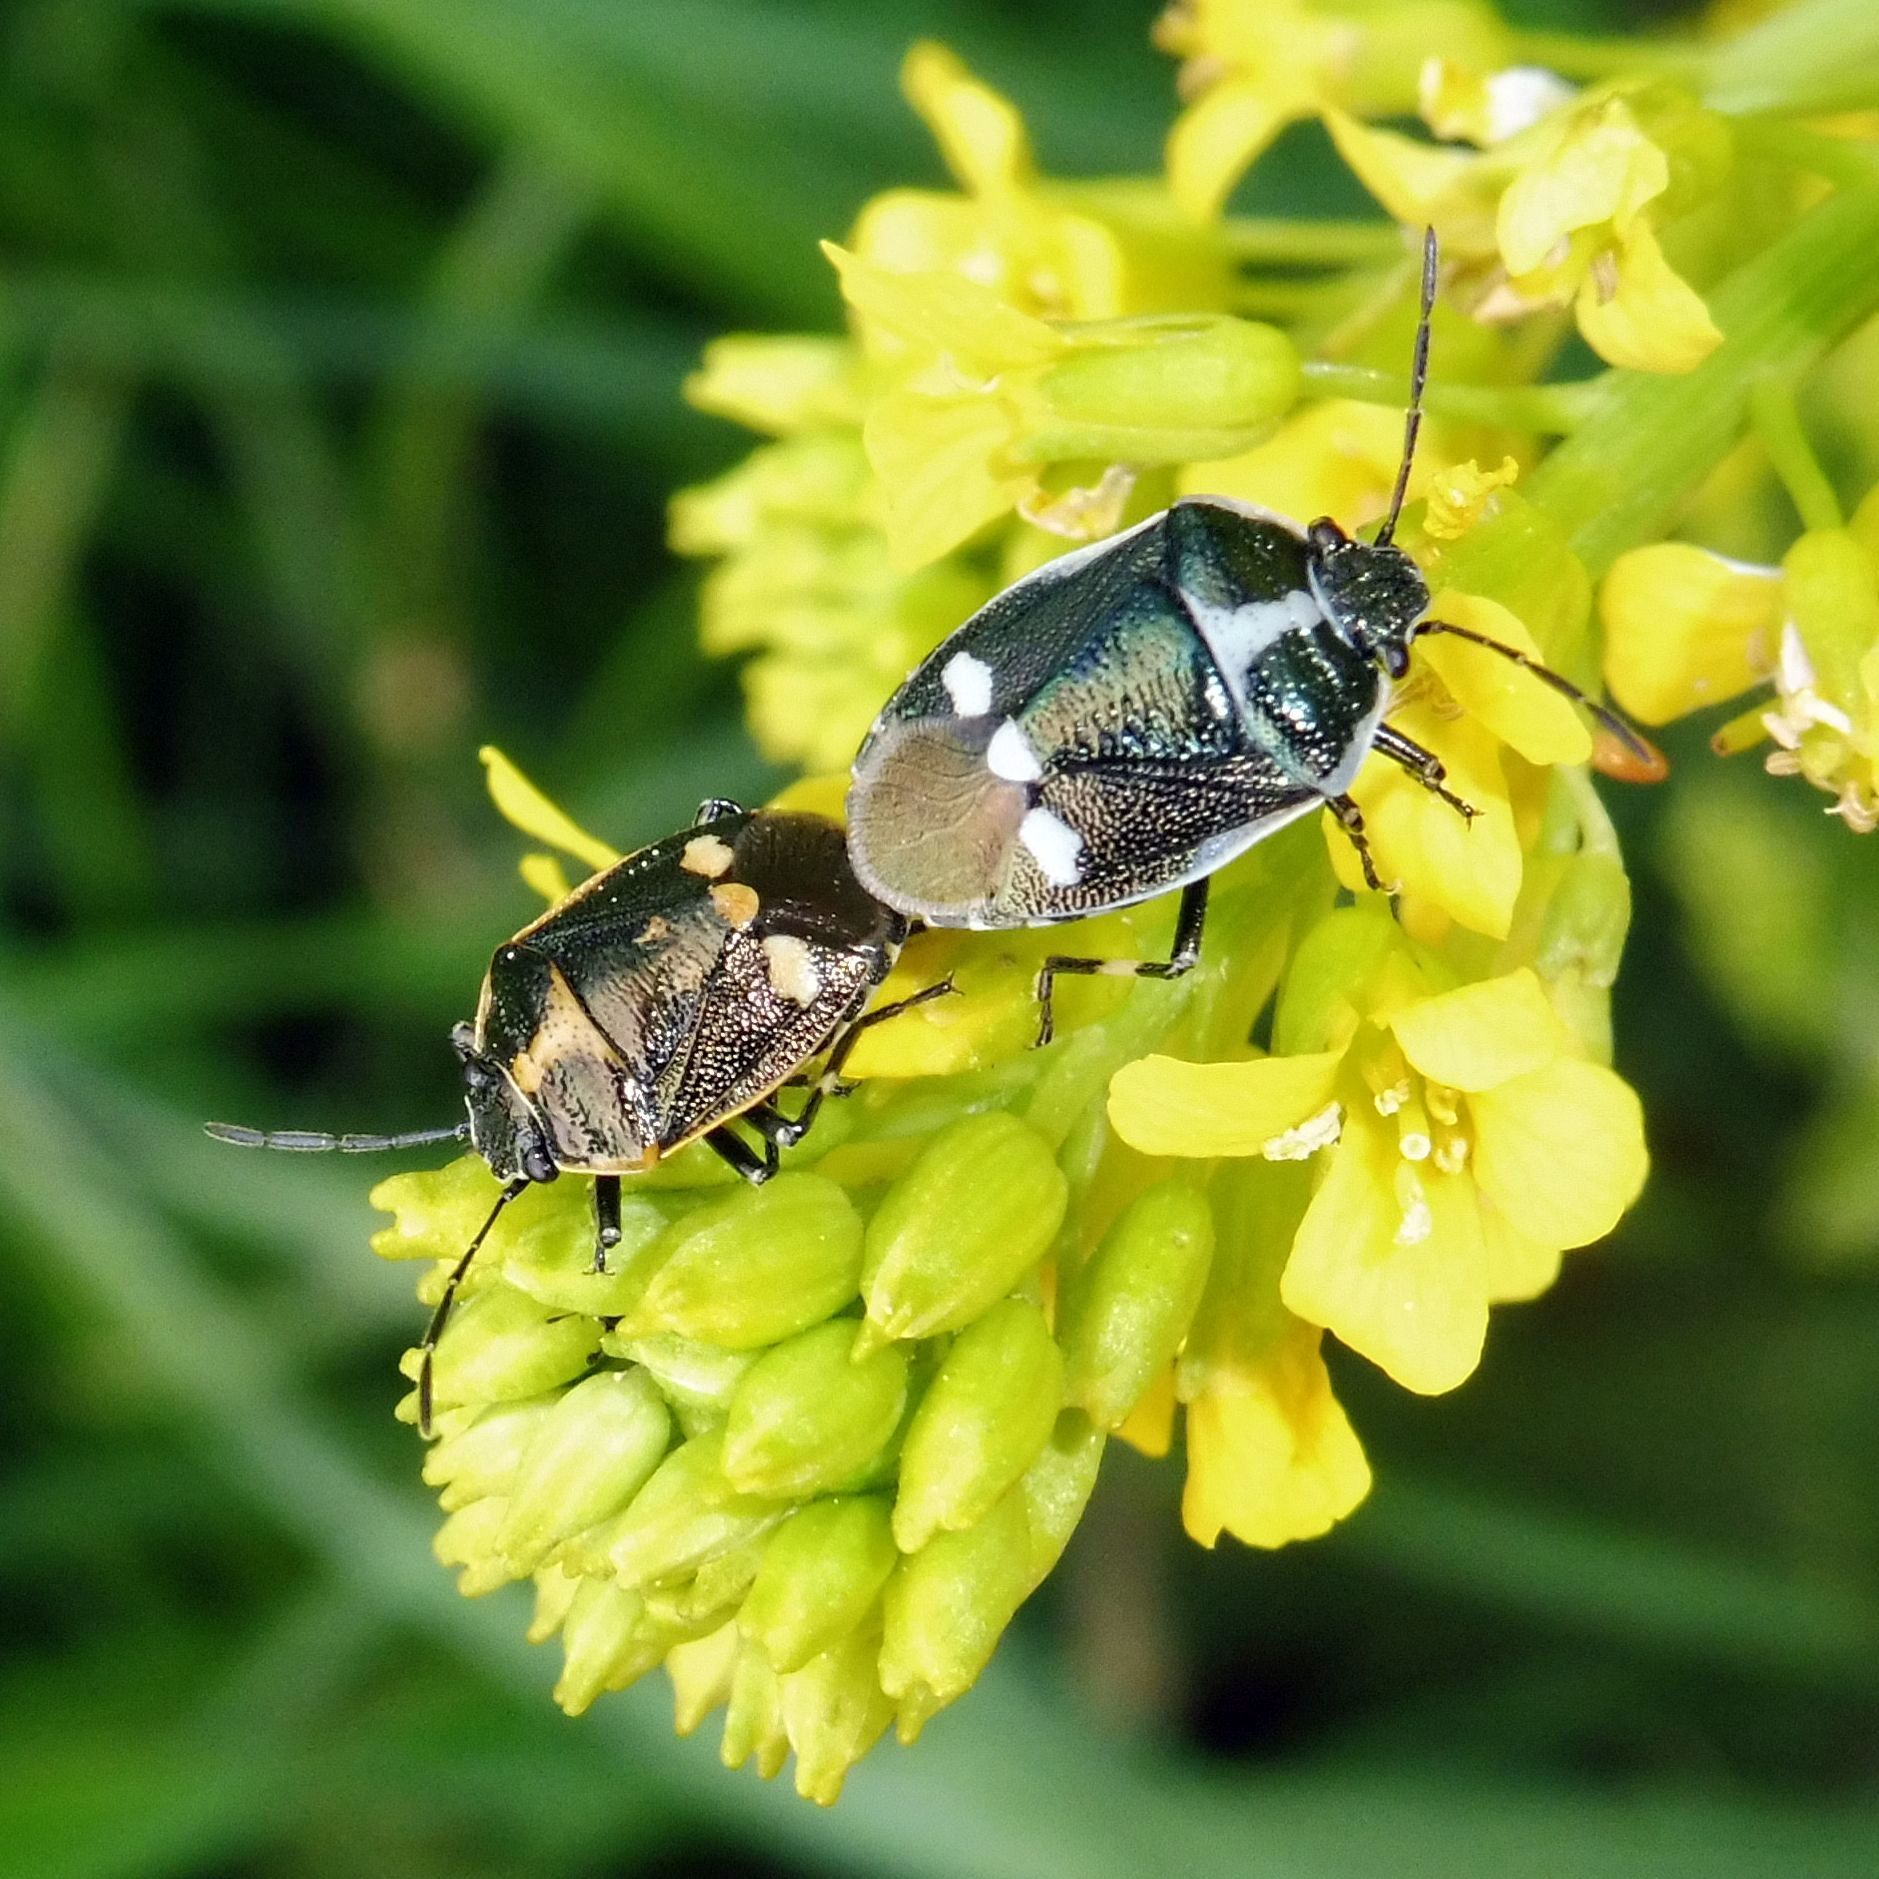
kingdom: Animalia
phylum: Arthropoda
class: Insecta
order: Hemiptera
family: Pentatomidae
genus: Eurydema
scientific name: Eurydema oleracea
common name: Cabbage bug
